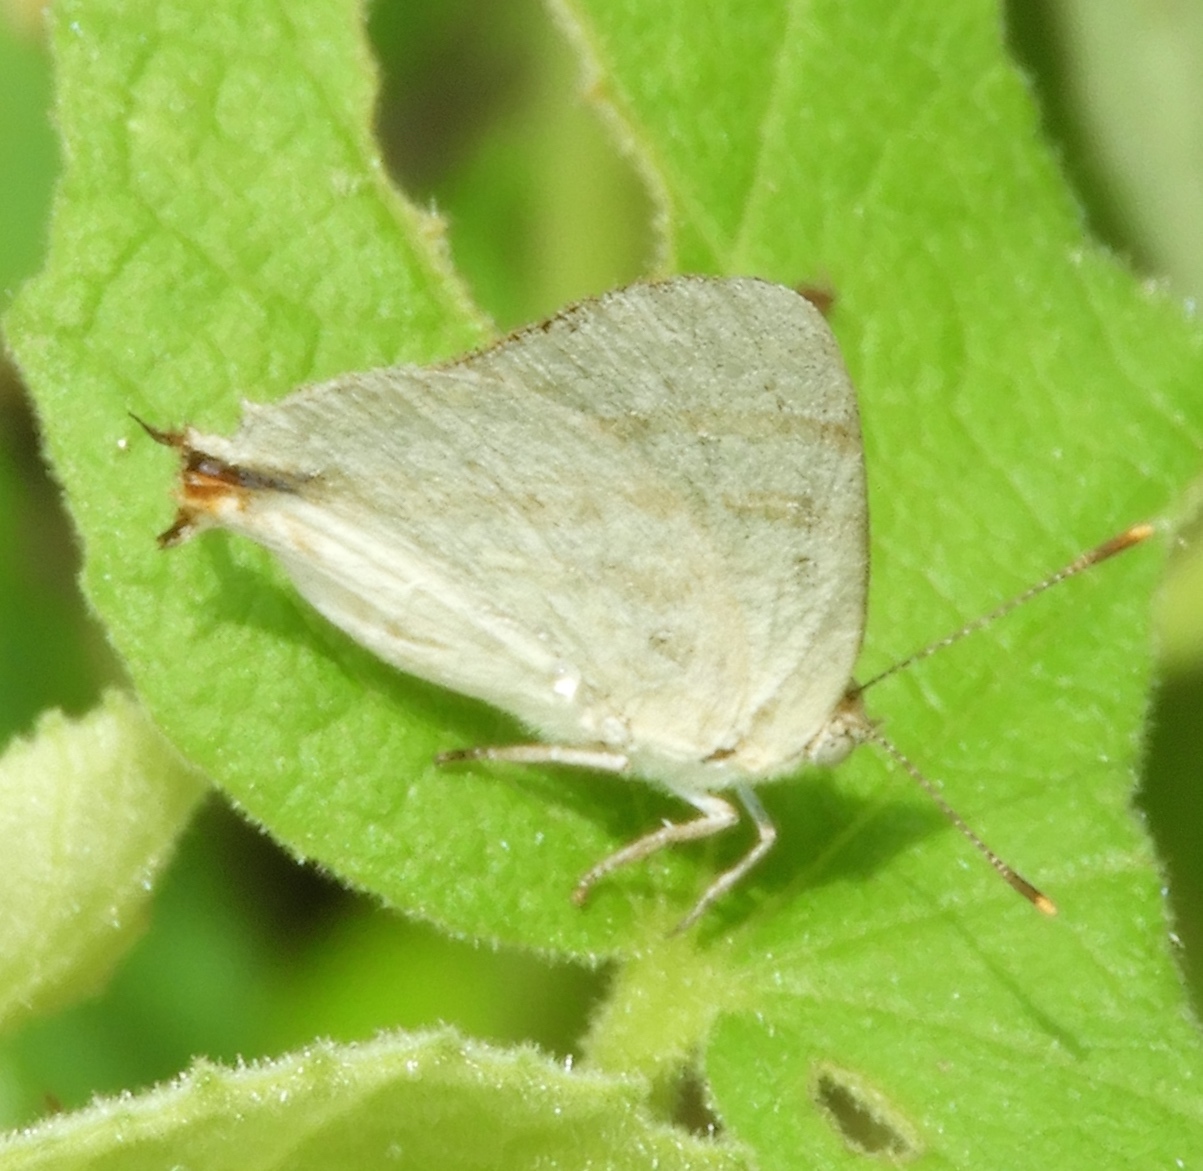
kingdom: Animalia
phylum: Arthropoda
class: Insecta
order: Lepidoptera
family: Lycaenidae
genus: Dolymorpha
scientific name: Dolymorpha jada
